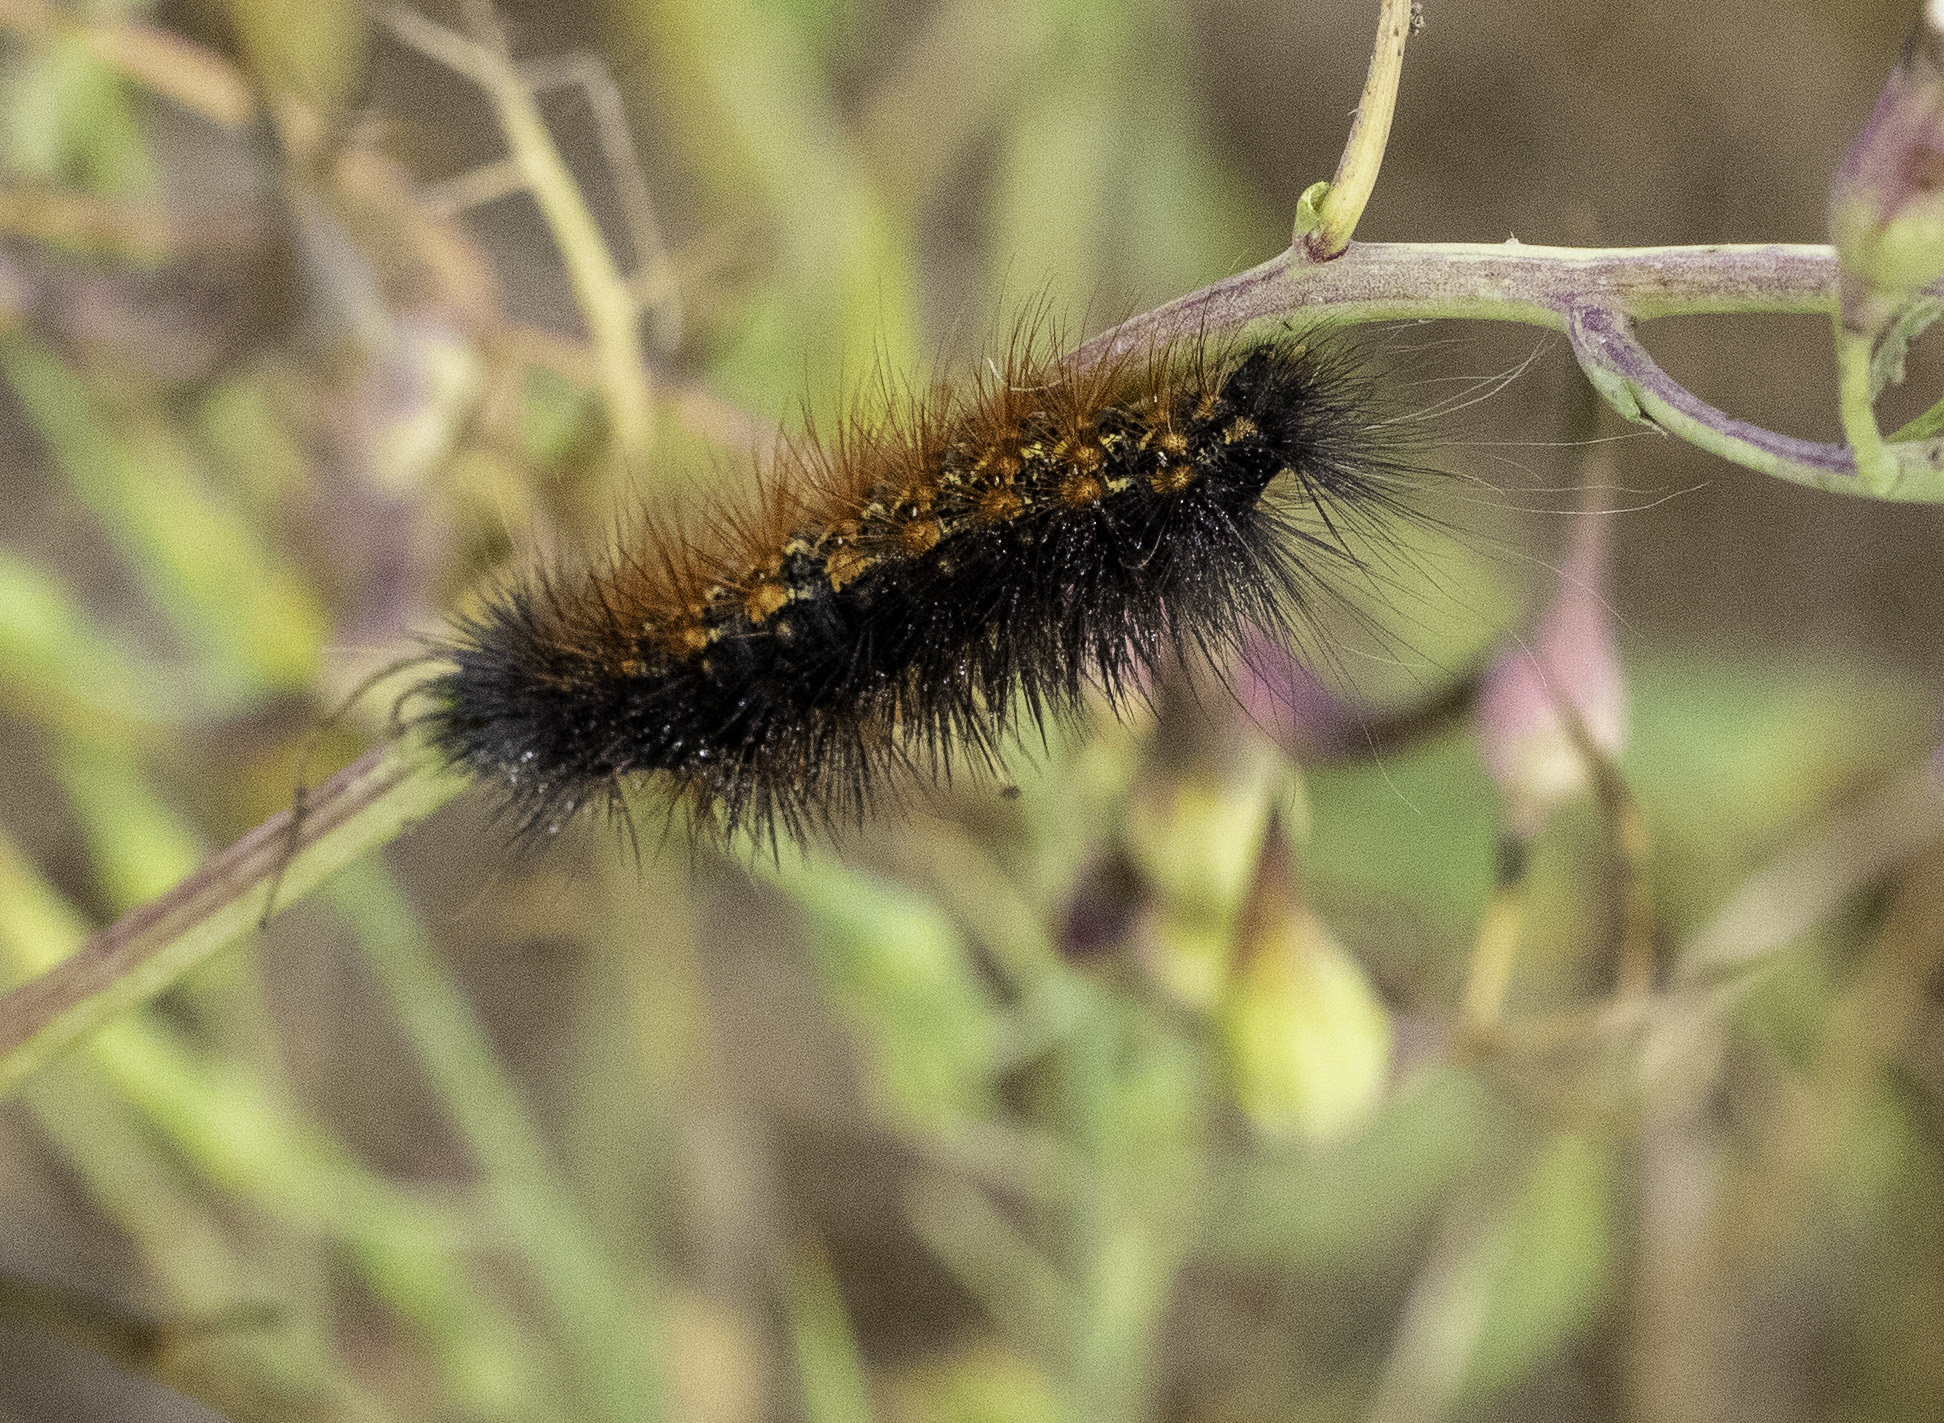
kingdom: Animalia
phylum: Arthropoda
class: Insecta
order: Lepidoptera
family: Erebidae
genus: Estigmene
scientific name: Estigmene acrea
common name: Salt marsh moth
